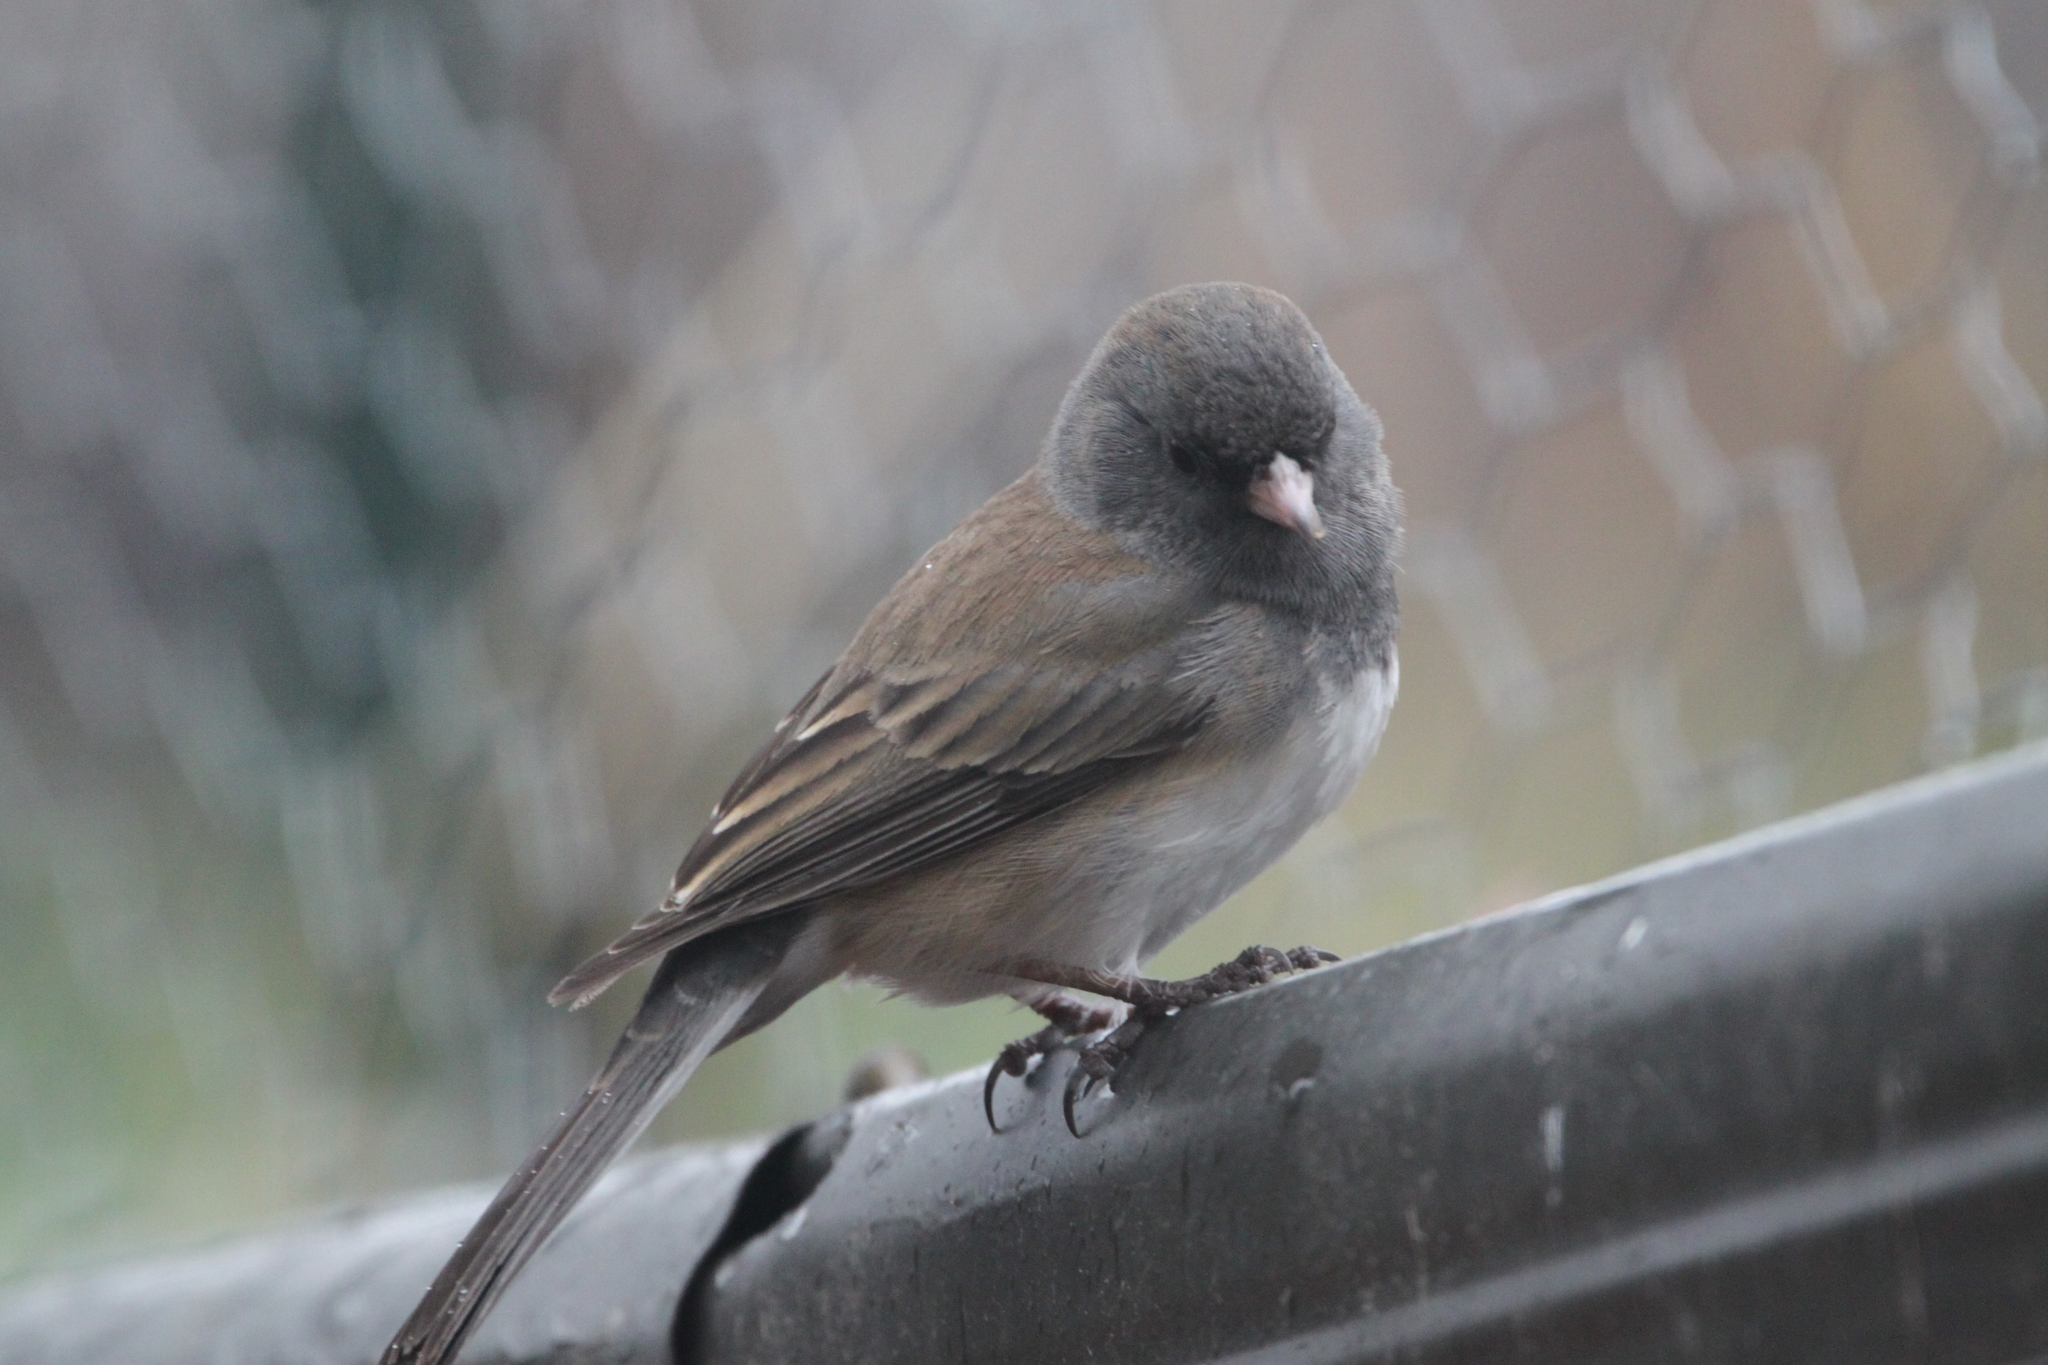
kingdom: Animalia
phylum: Chordata
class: Aves
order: Passeriformes
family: Passerellidae
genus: Junco
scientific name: Junco hyemalis
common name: Dark-eyed junco
